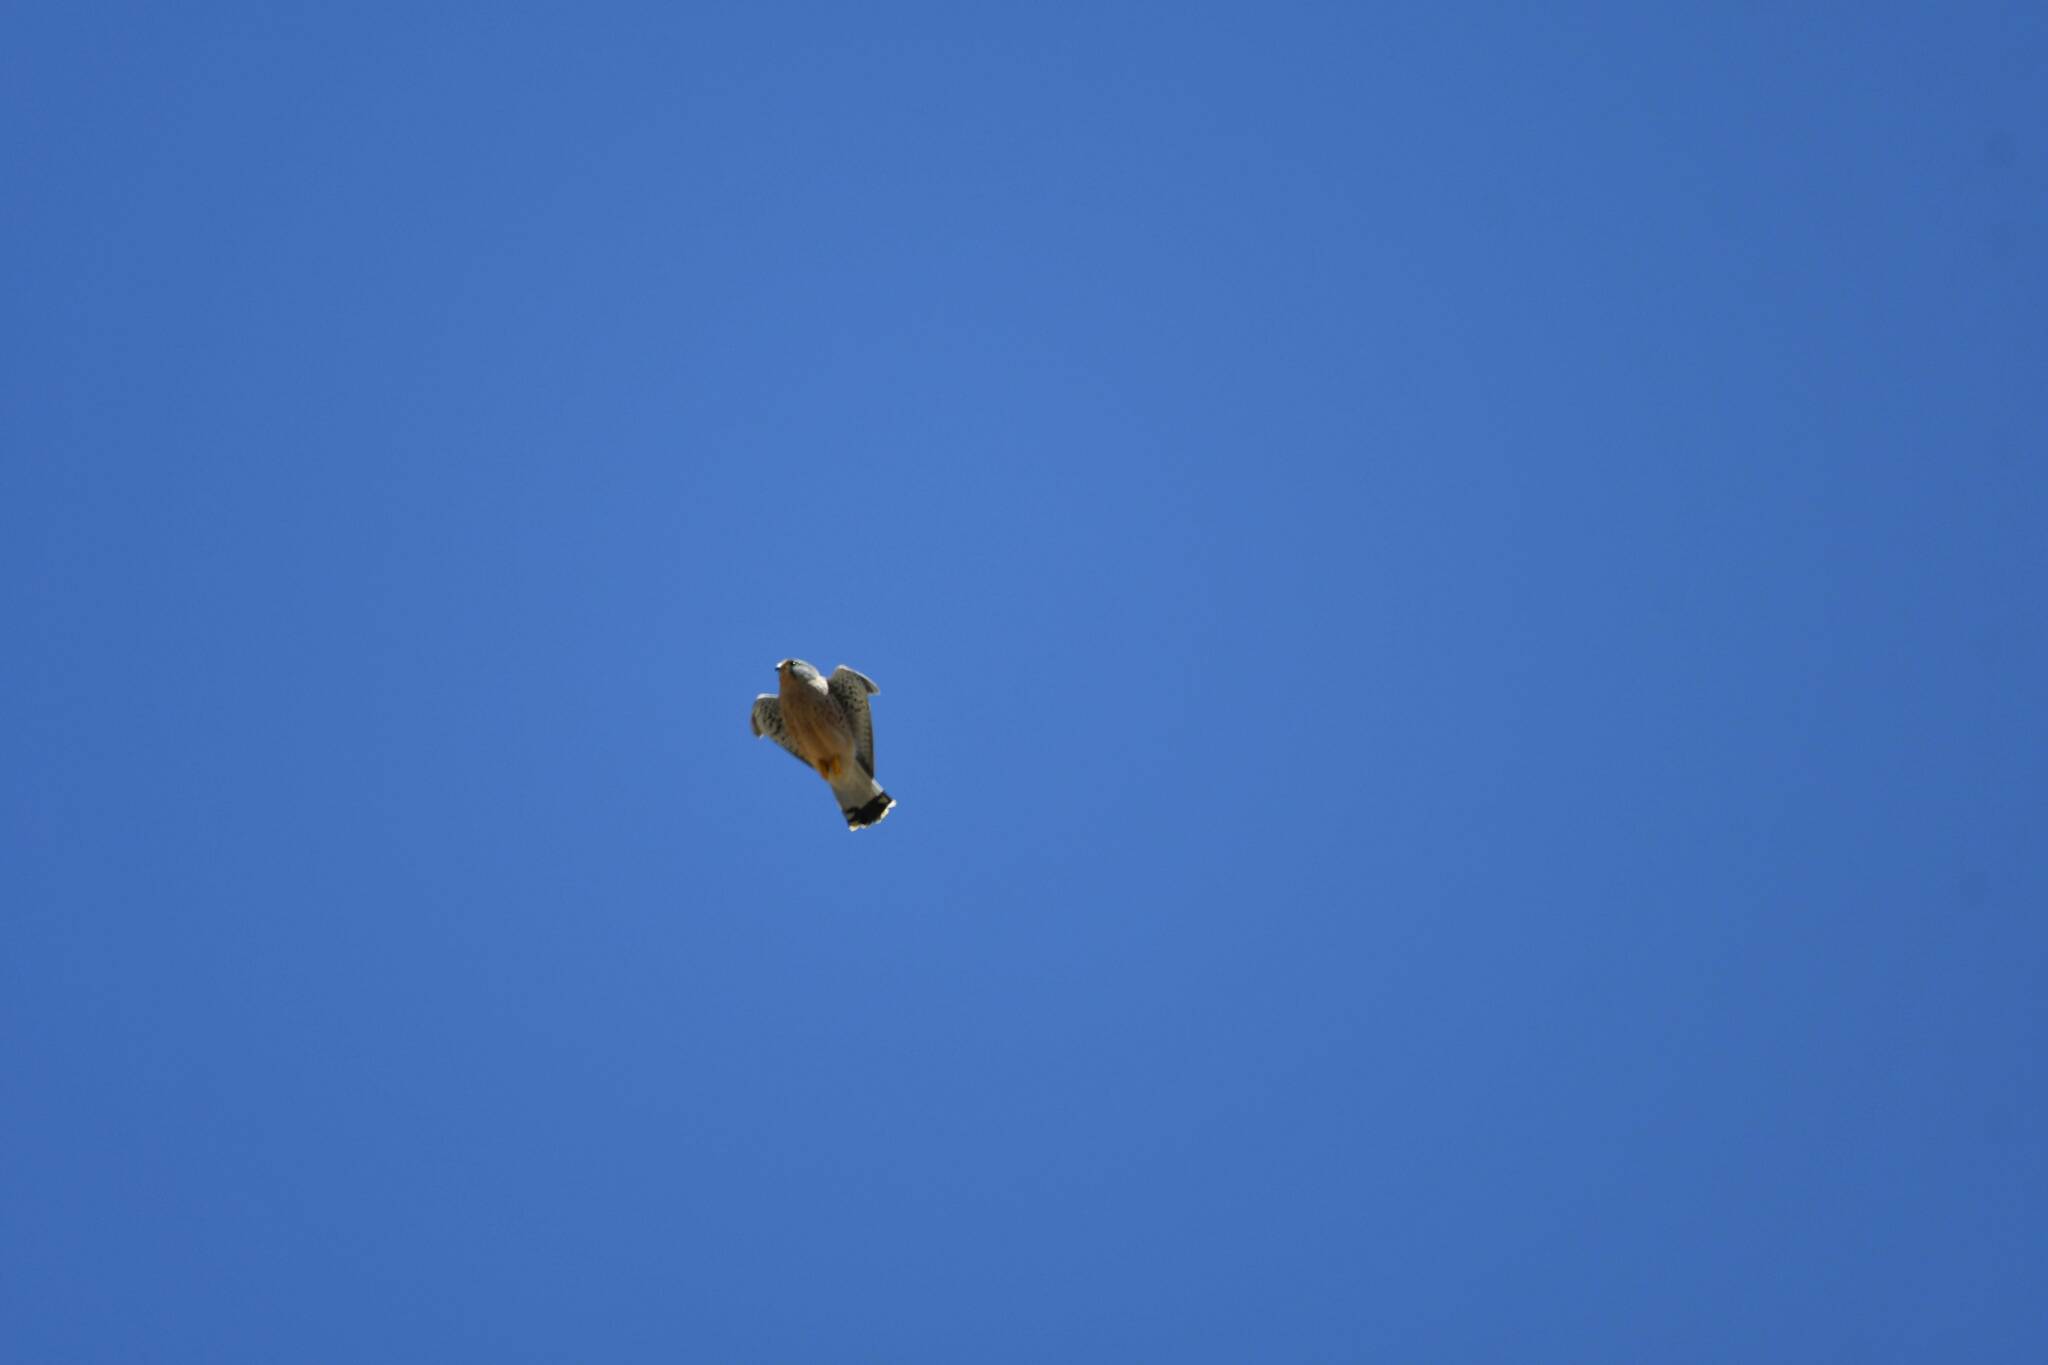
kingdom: Animalia
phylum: Chordata
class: Aves
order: Falconiformes
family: Falconidae
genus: Falco
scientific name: Falco naumanni
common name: Lesser kestrel
